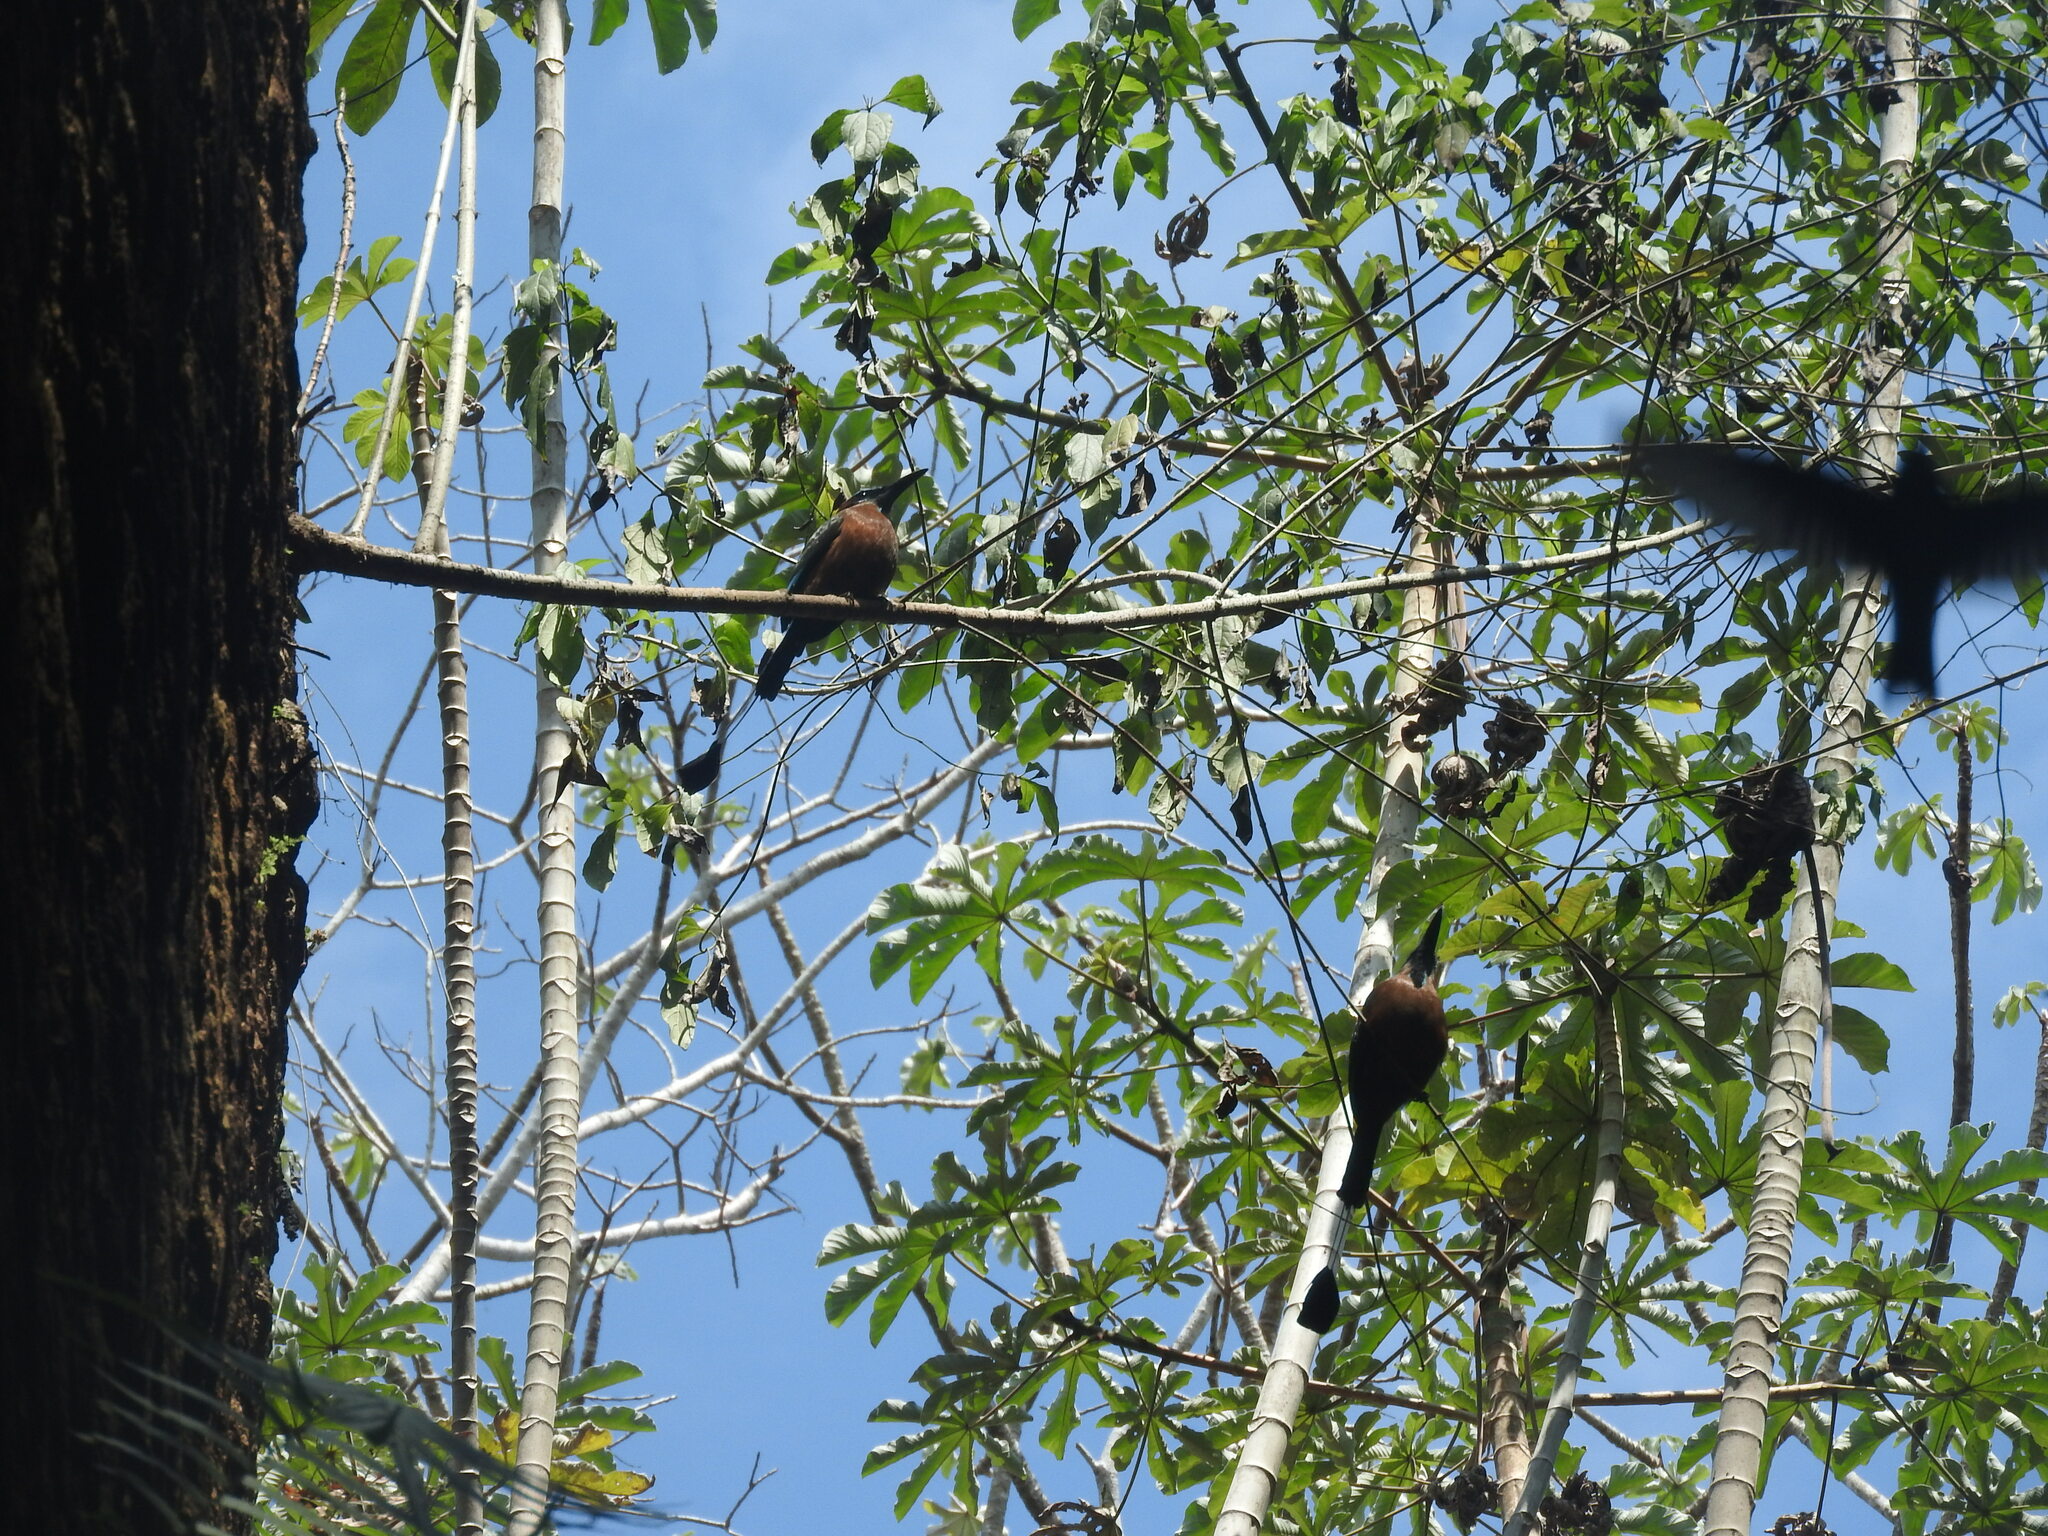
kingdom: Animalia
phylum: Chordata
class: Aves
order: Coraciiformes
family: Momotidae
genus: Eumomota
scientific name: Eumomota superciliosa
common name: Turquoise-browed motmot
